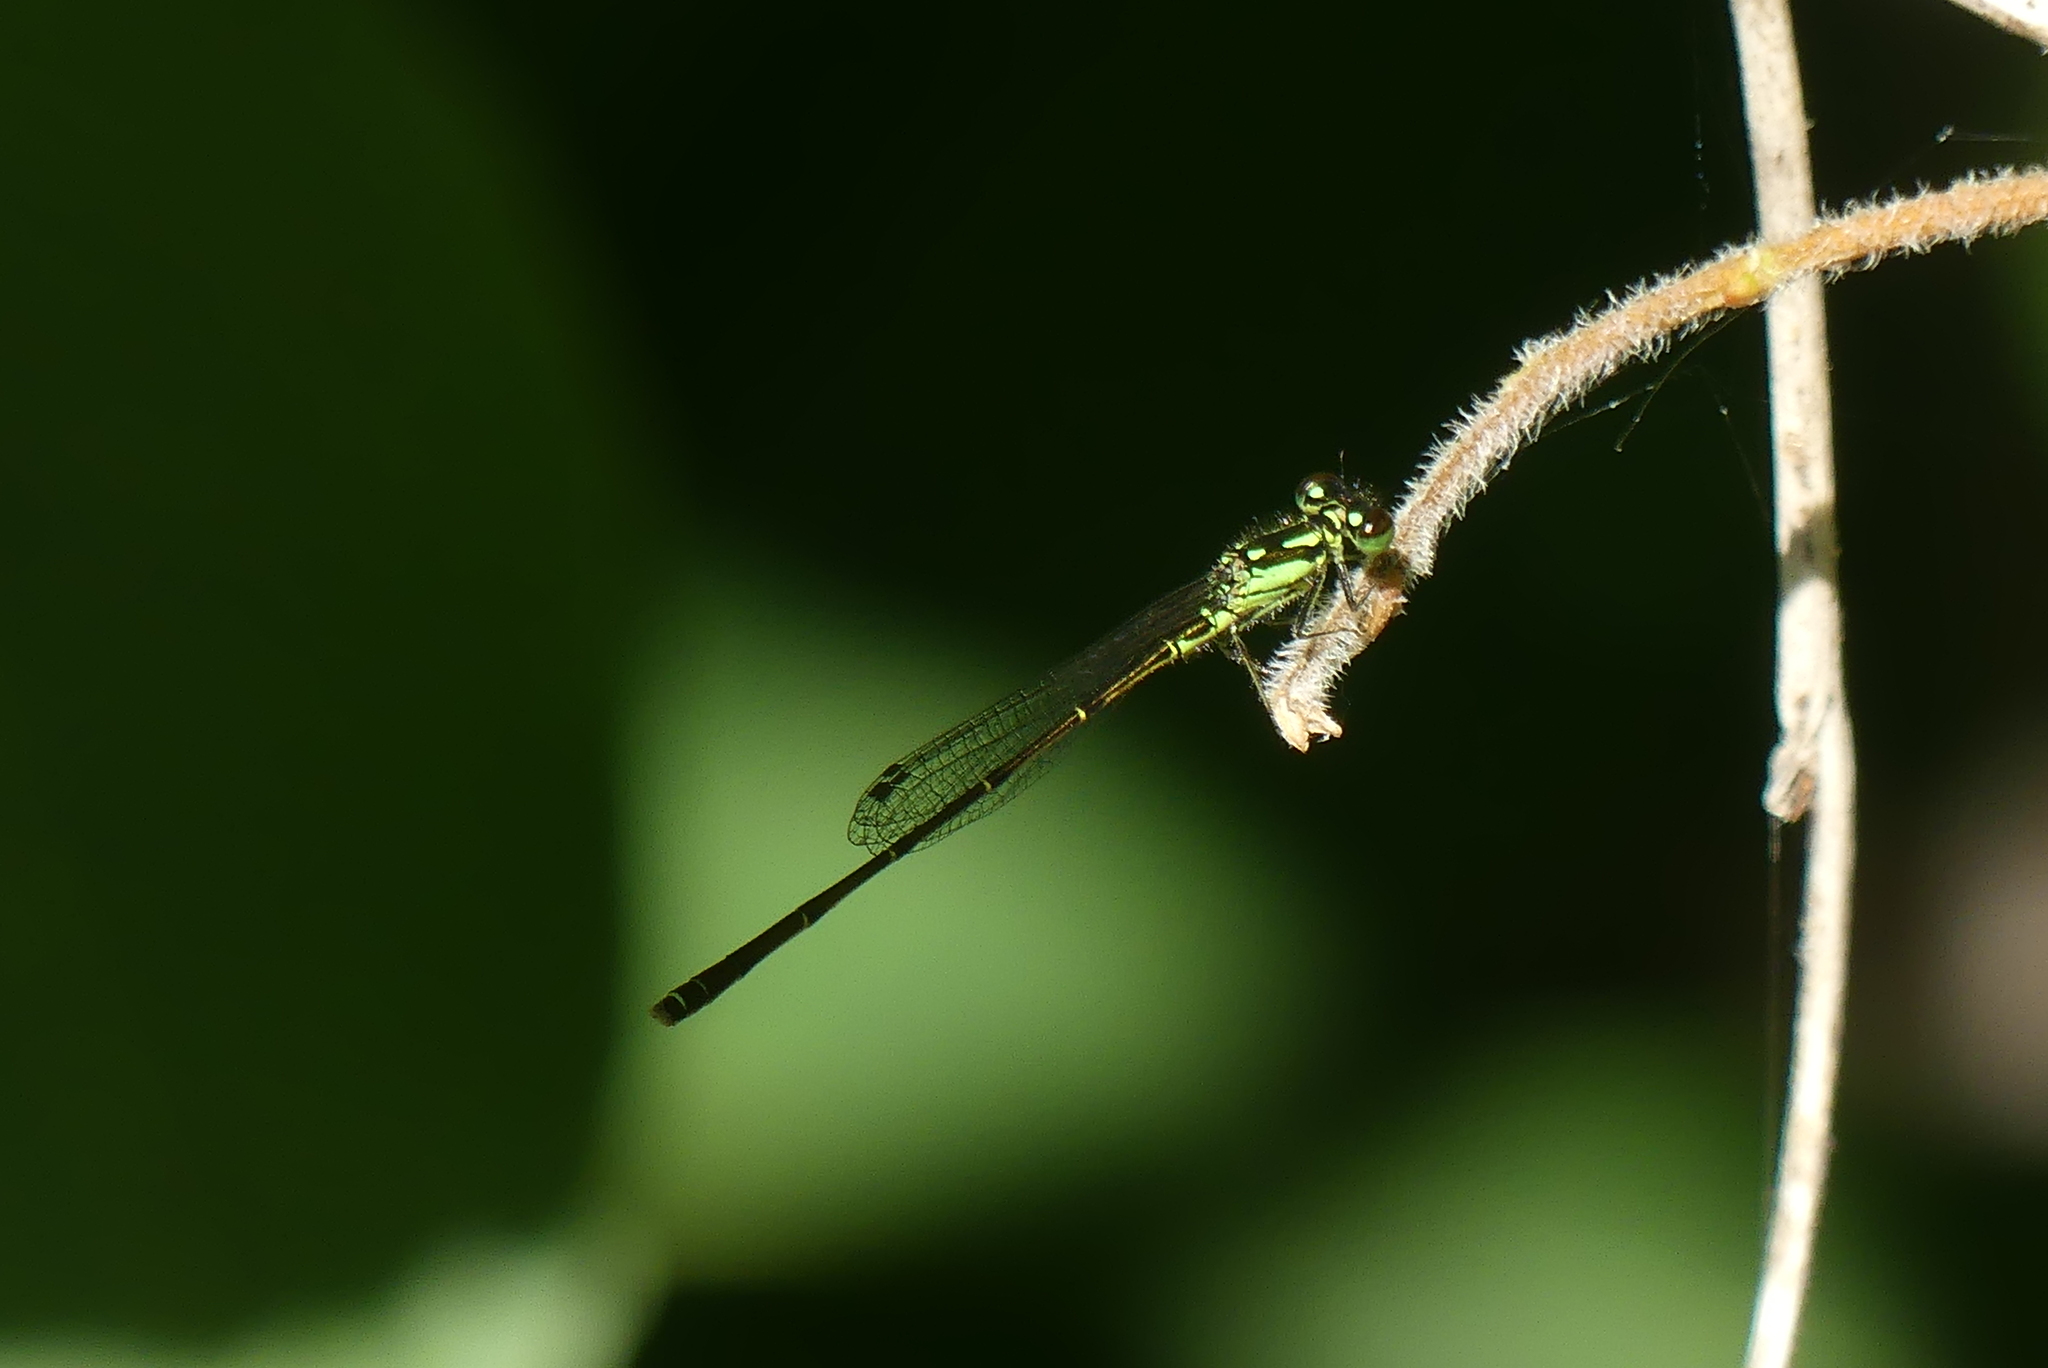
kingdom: Animalia
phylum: Arthropoda
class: Insecta
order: Odonata
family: Coenagrionidae
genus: Ischnura
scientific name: Ischnura posita
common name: Fragile forktail
